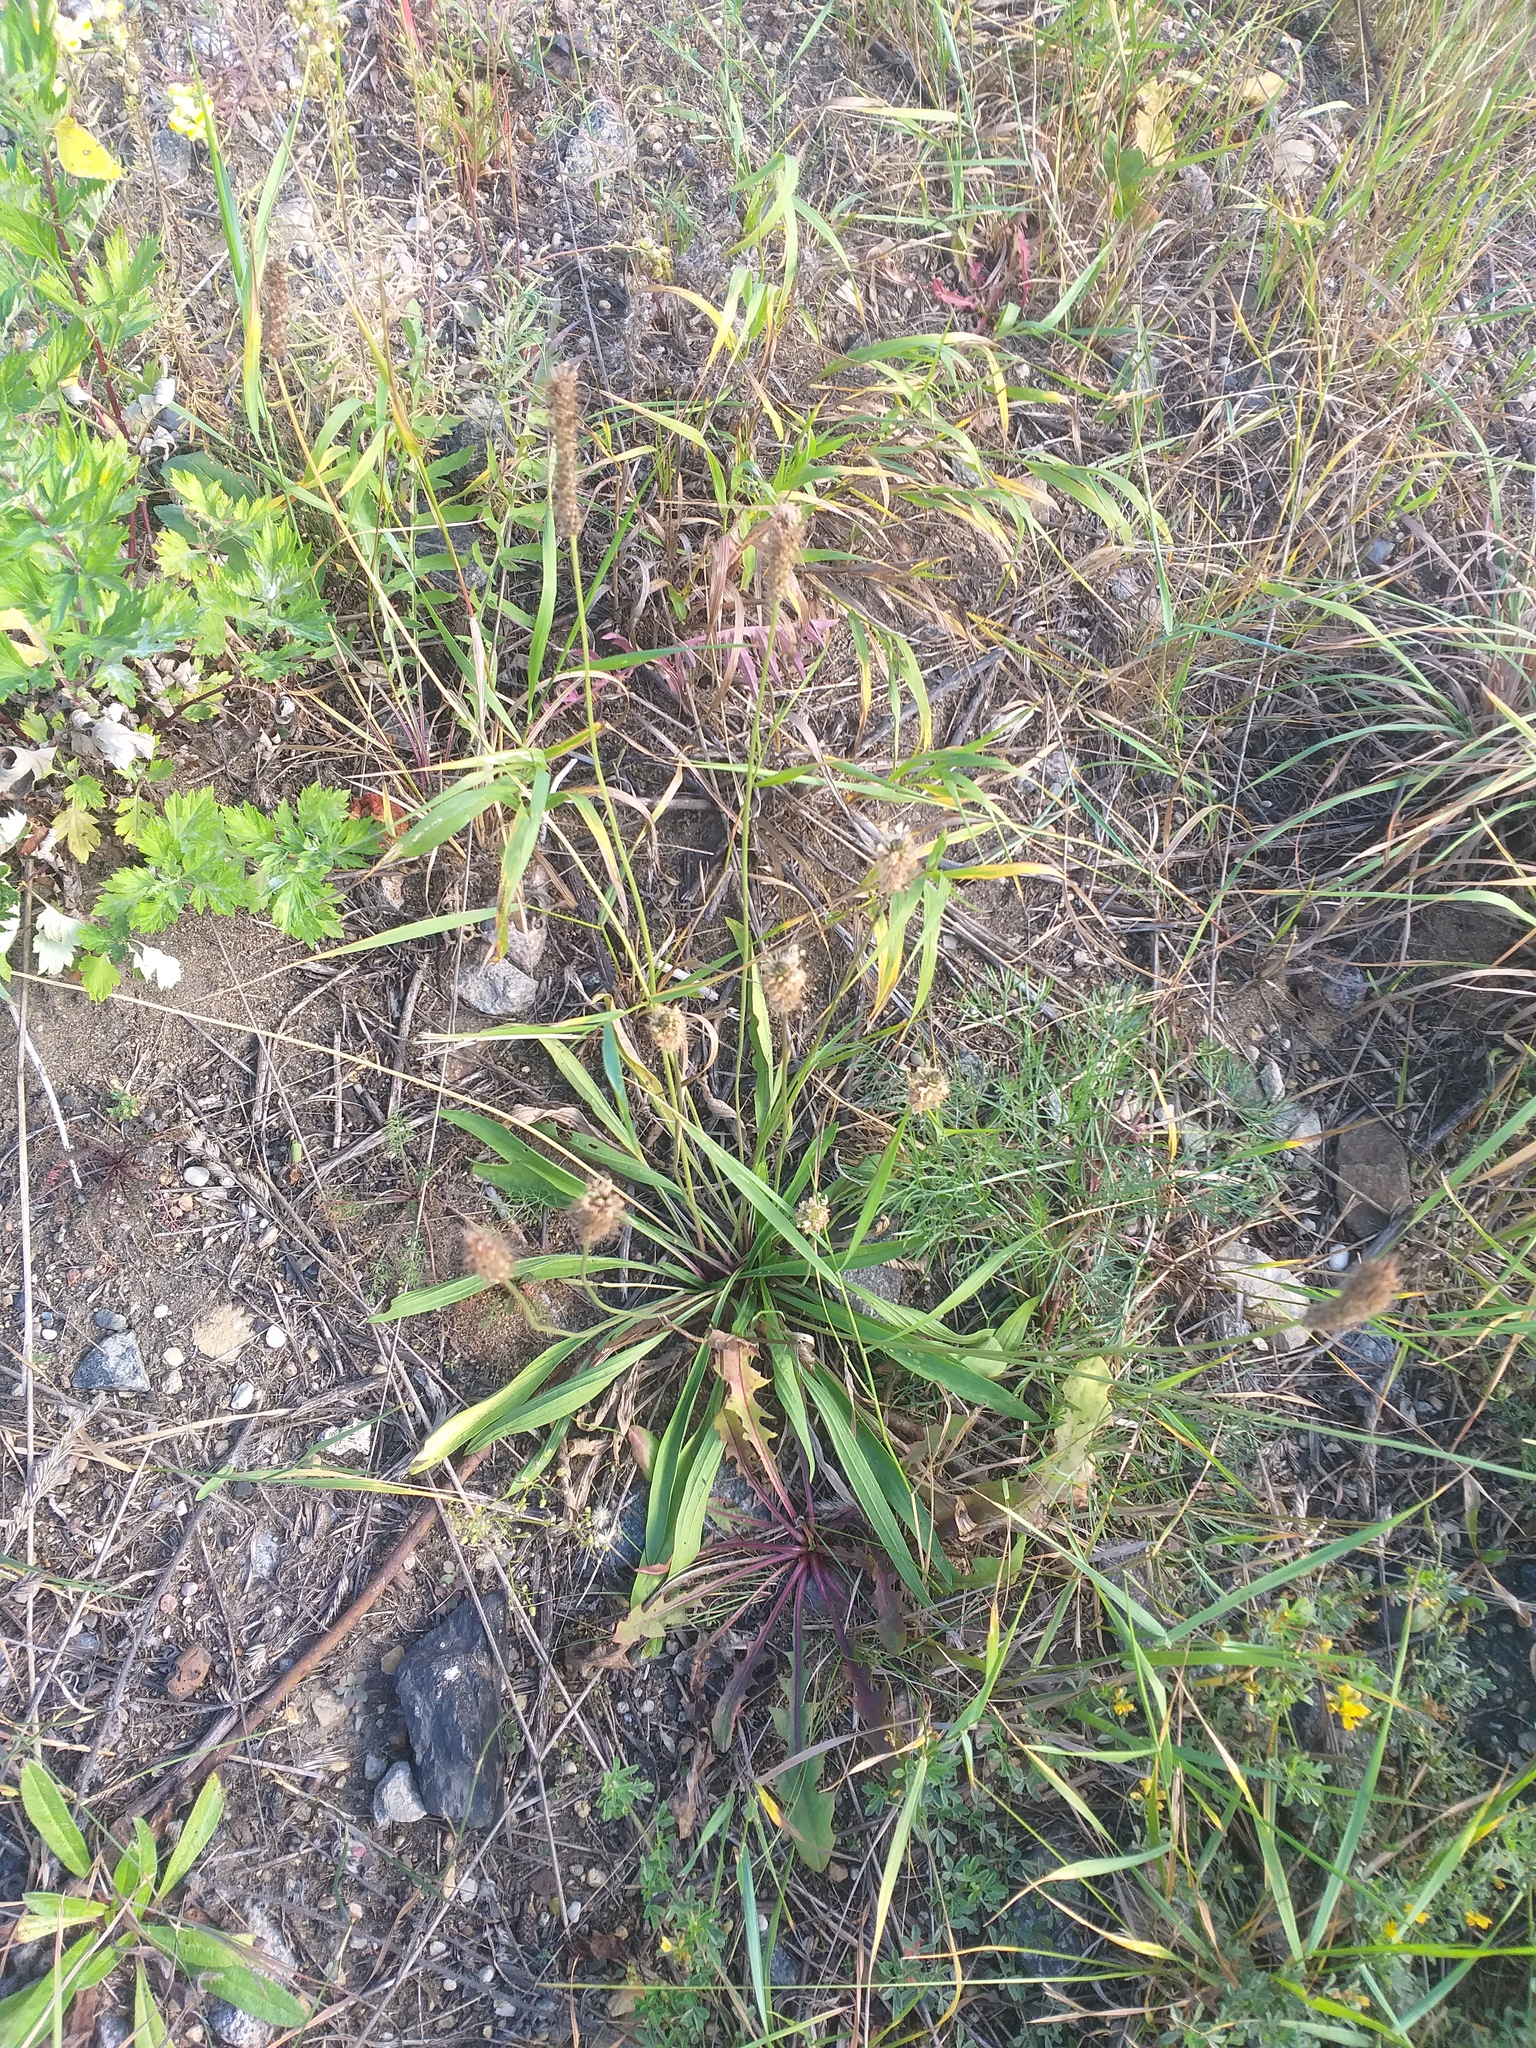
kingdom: Plantae
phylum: Tracheophyta
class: Magnoliopsida
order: Lamiales
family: Plantaginaceae
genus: Plantago
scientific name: Plantago lanceolata
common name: Ribwort plantain
